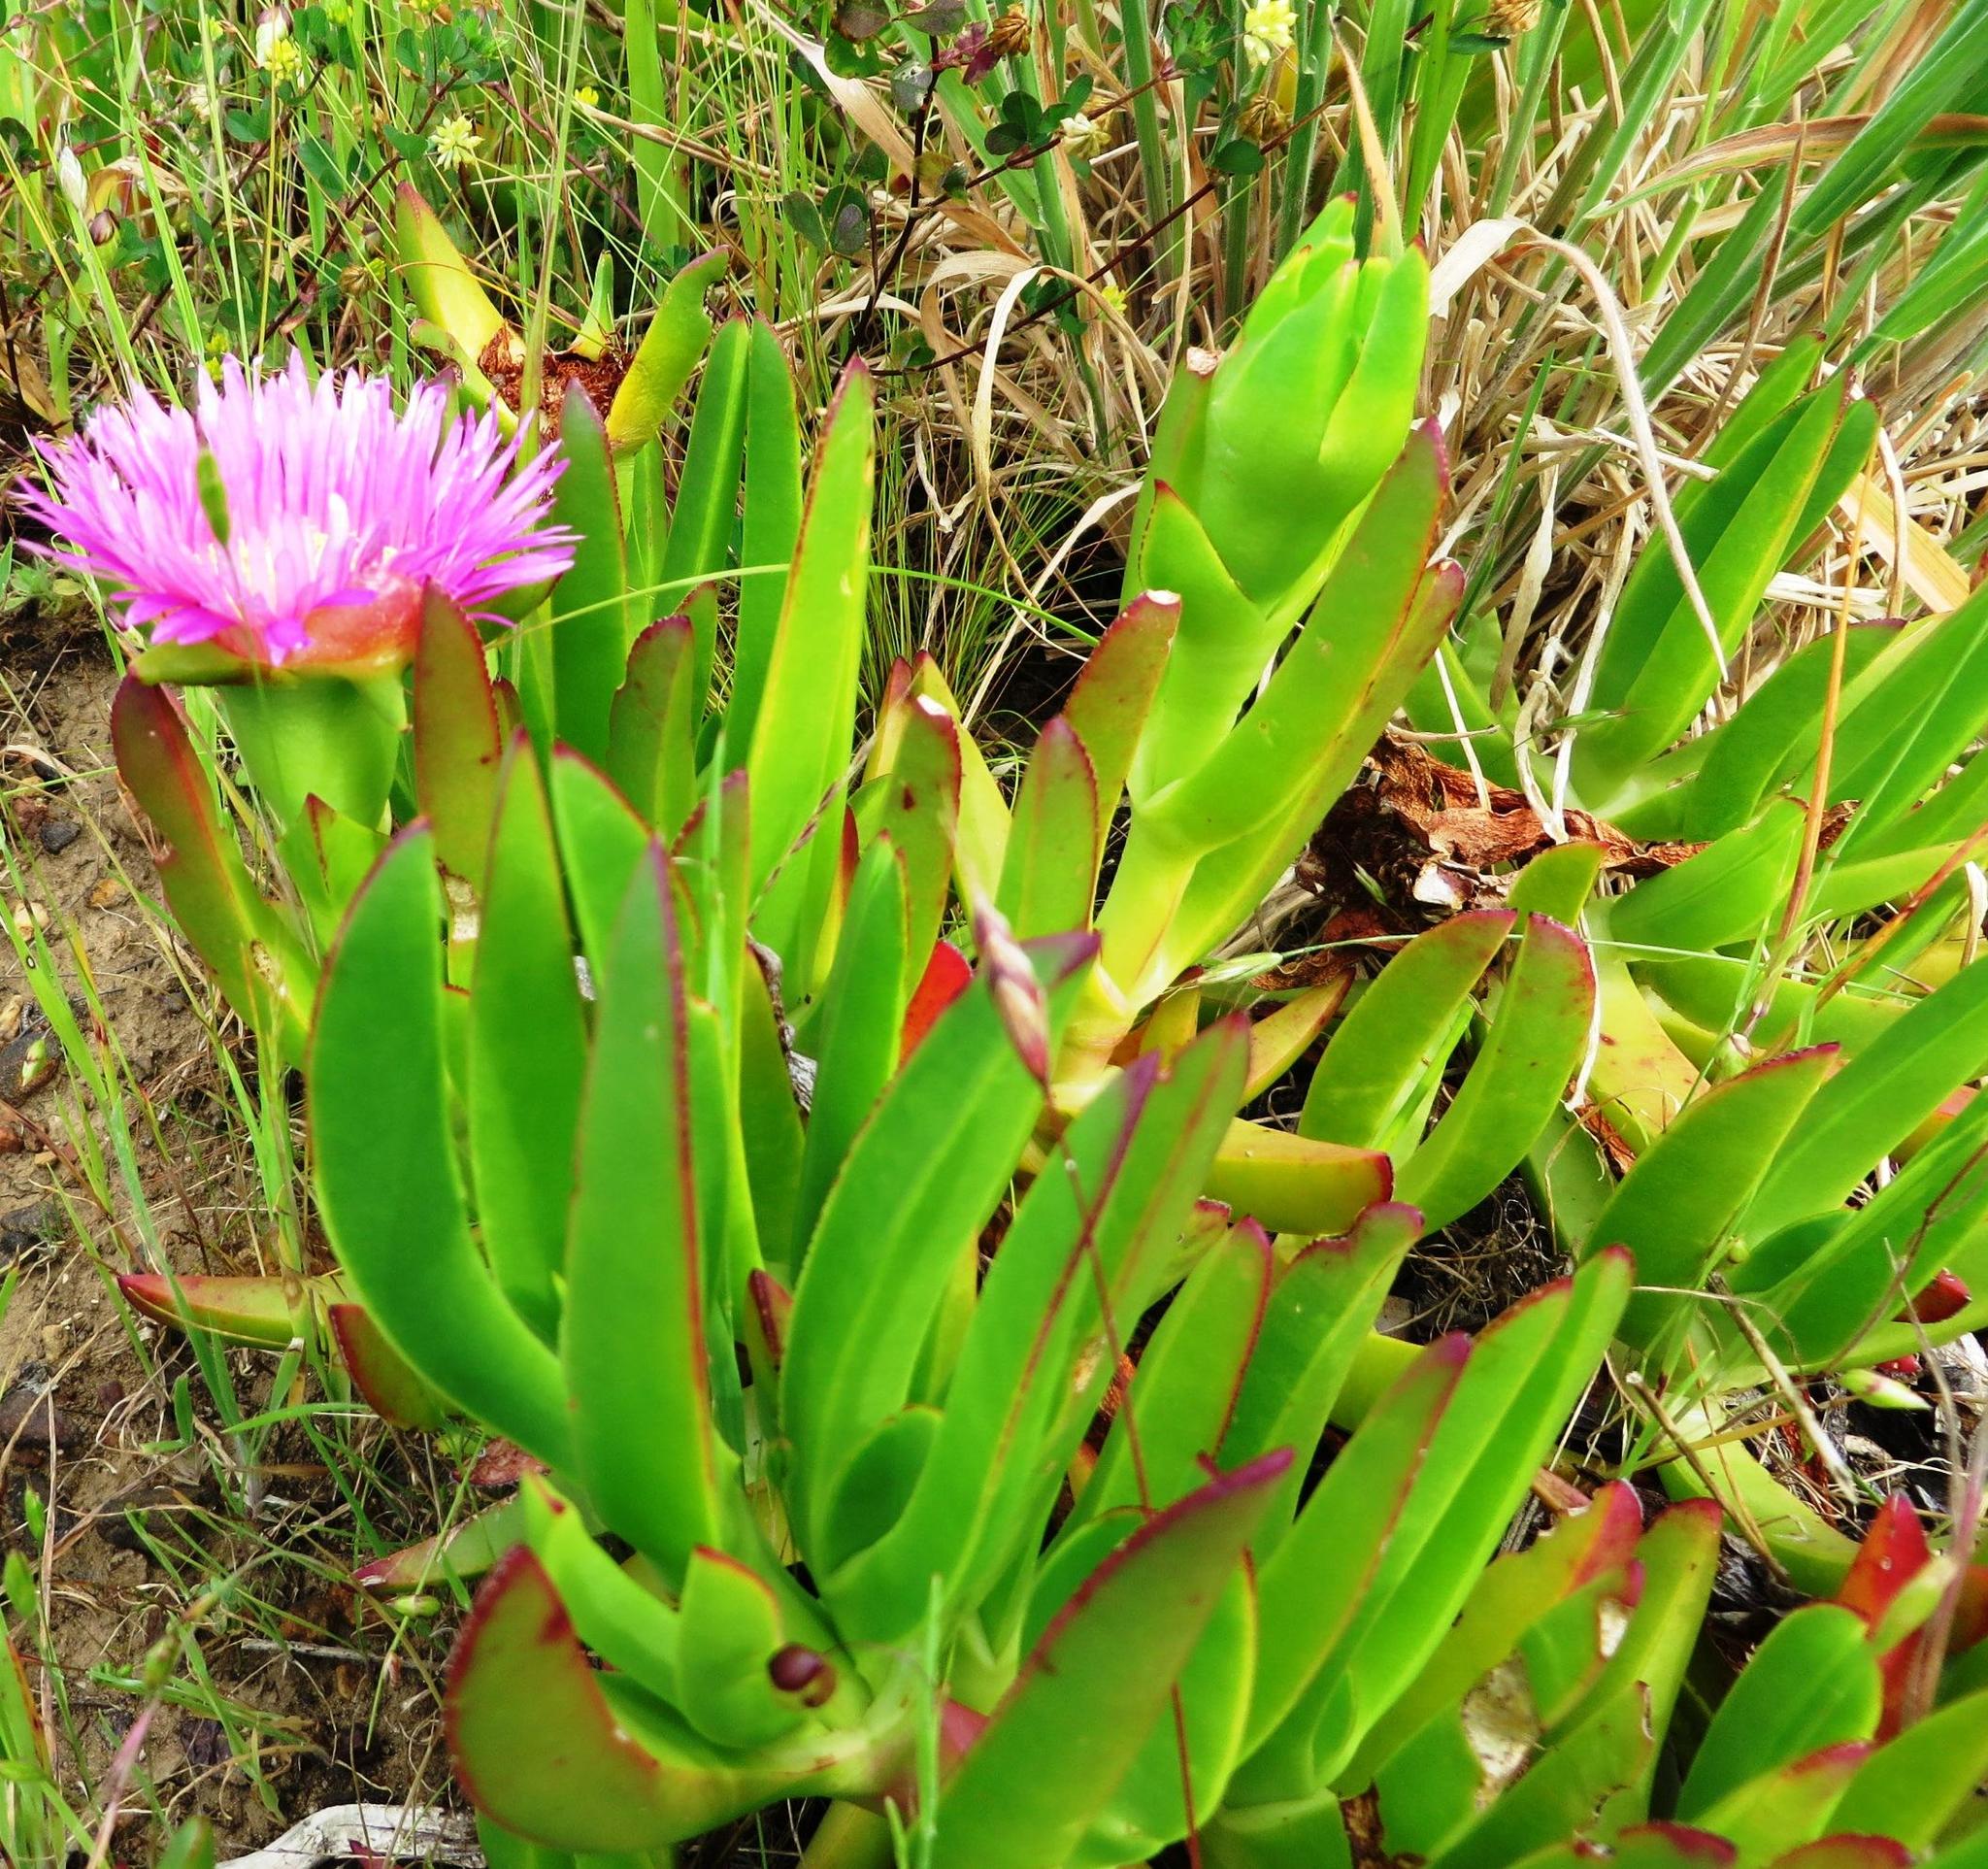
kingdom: Plantae
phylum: Tracheophyta
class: Magnoliopsida
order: Caryophyllales
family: Aizoaceae
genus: Carpobrotus
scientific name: Carpobrotus mellei
